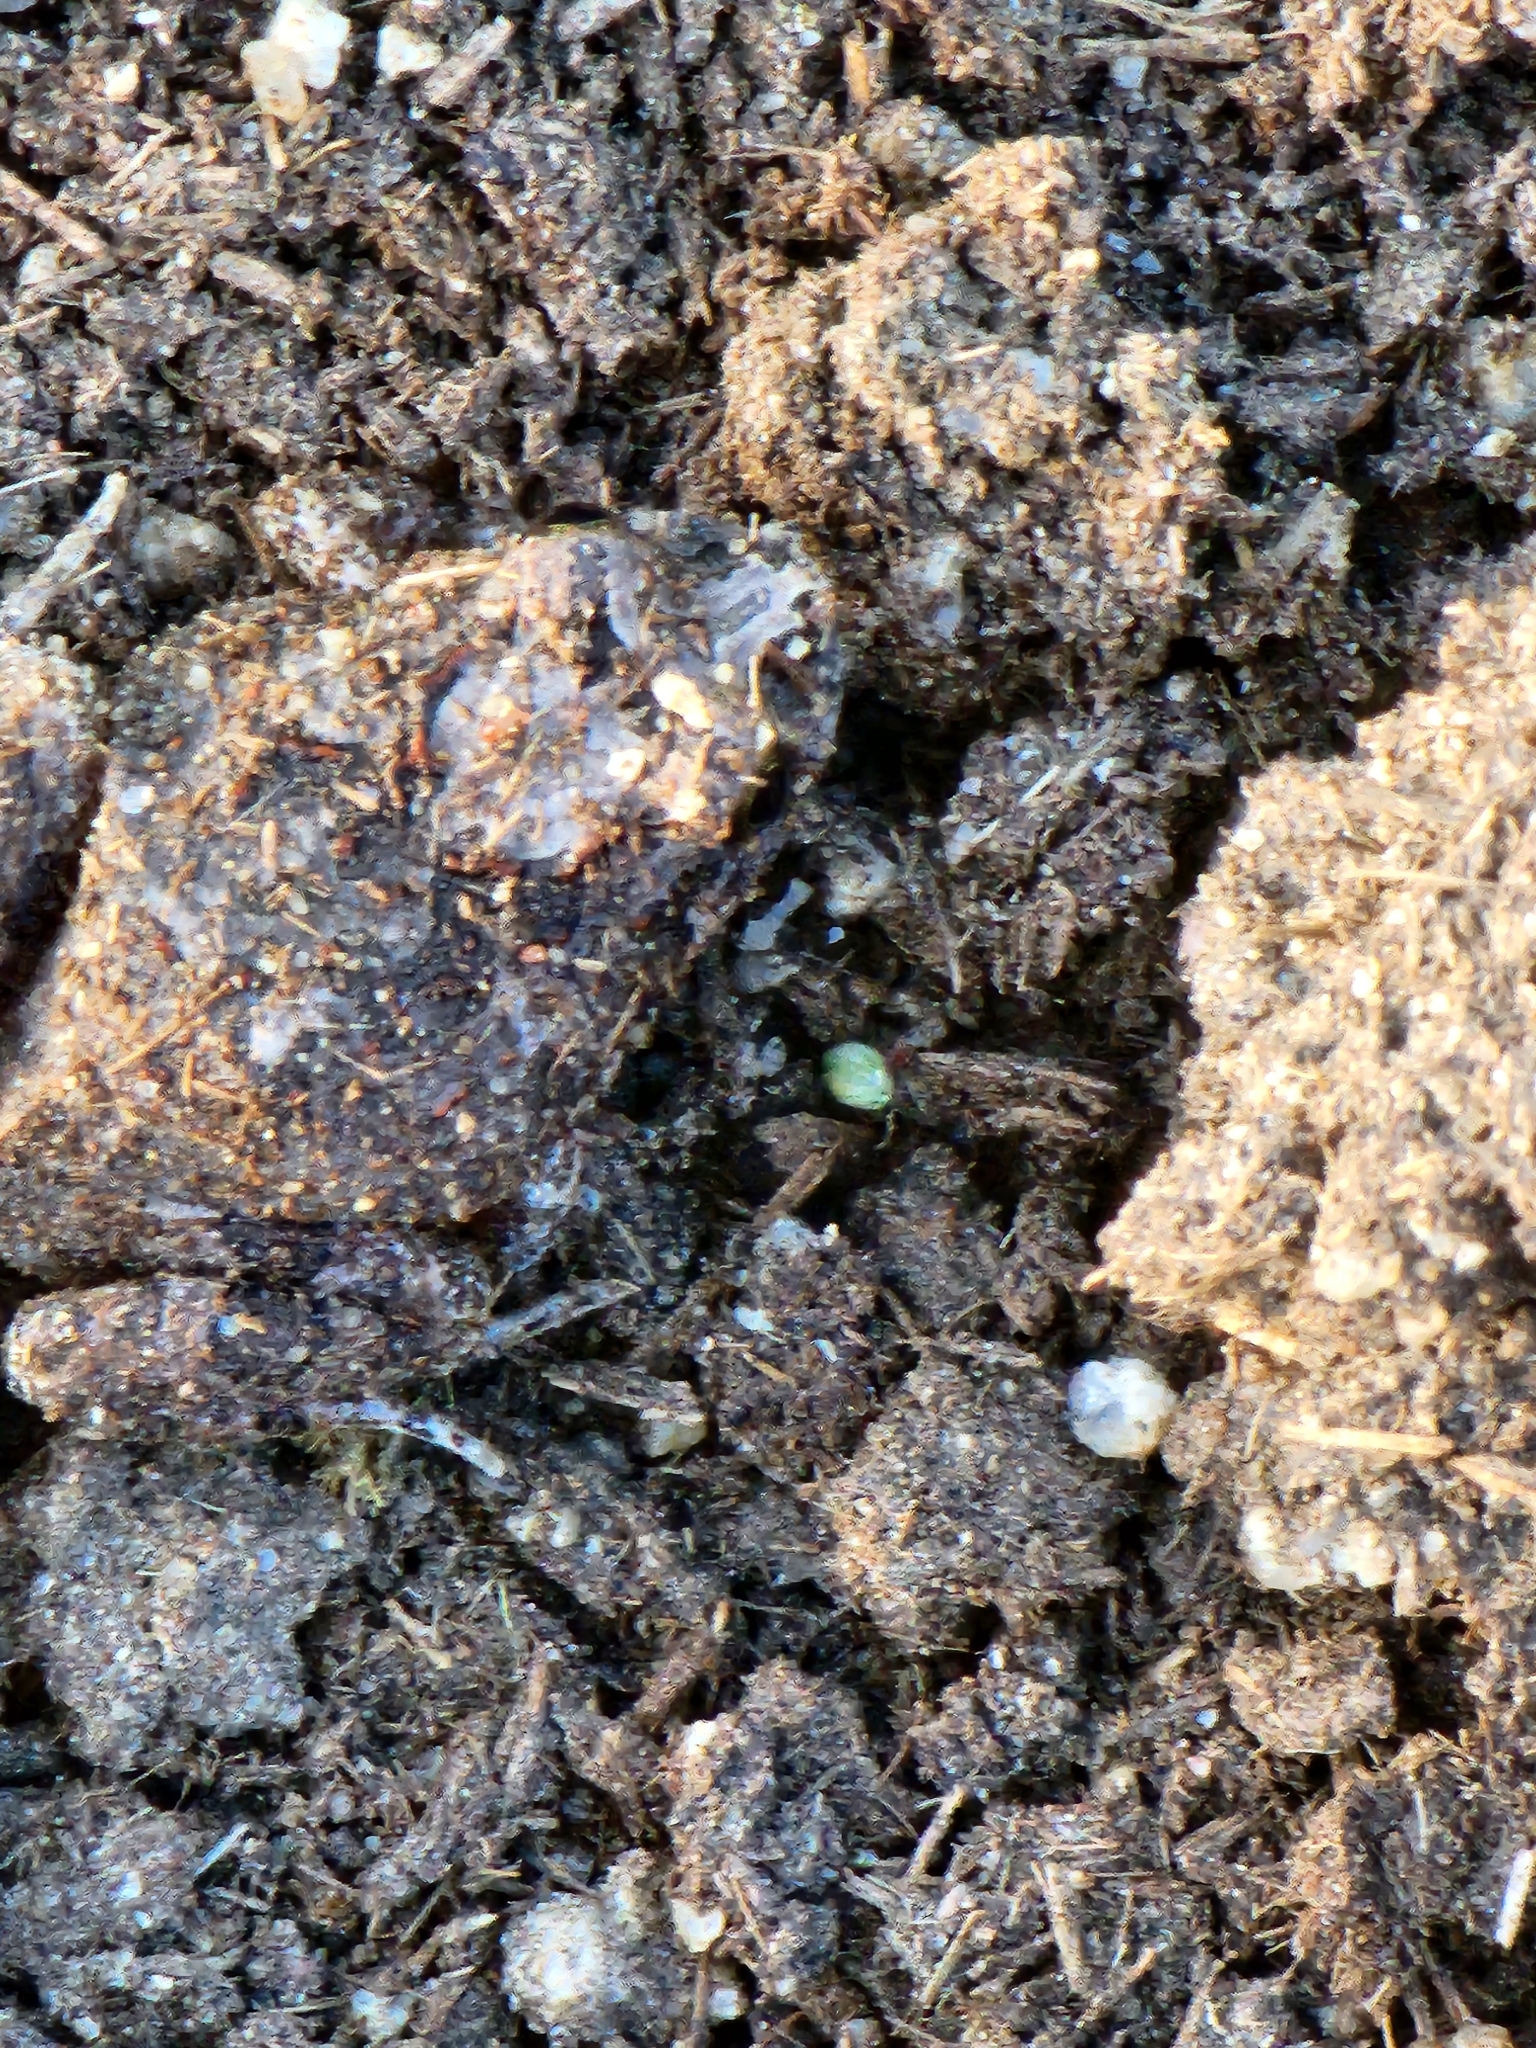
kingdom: Animalia
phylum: Chordata
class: Amphibia
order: Anura
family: Limnodynastidae
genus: Platyplectrum
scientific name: Platyplectrum ornatum
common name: Ornate burrowing frog
